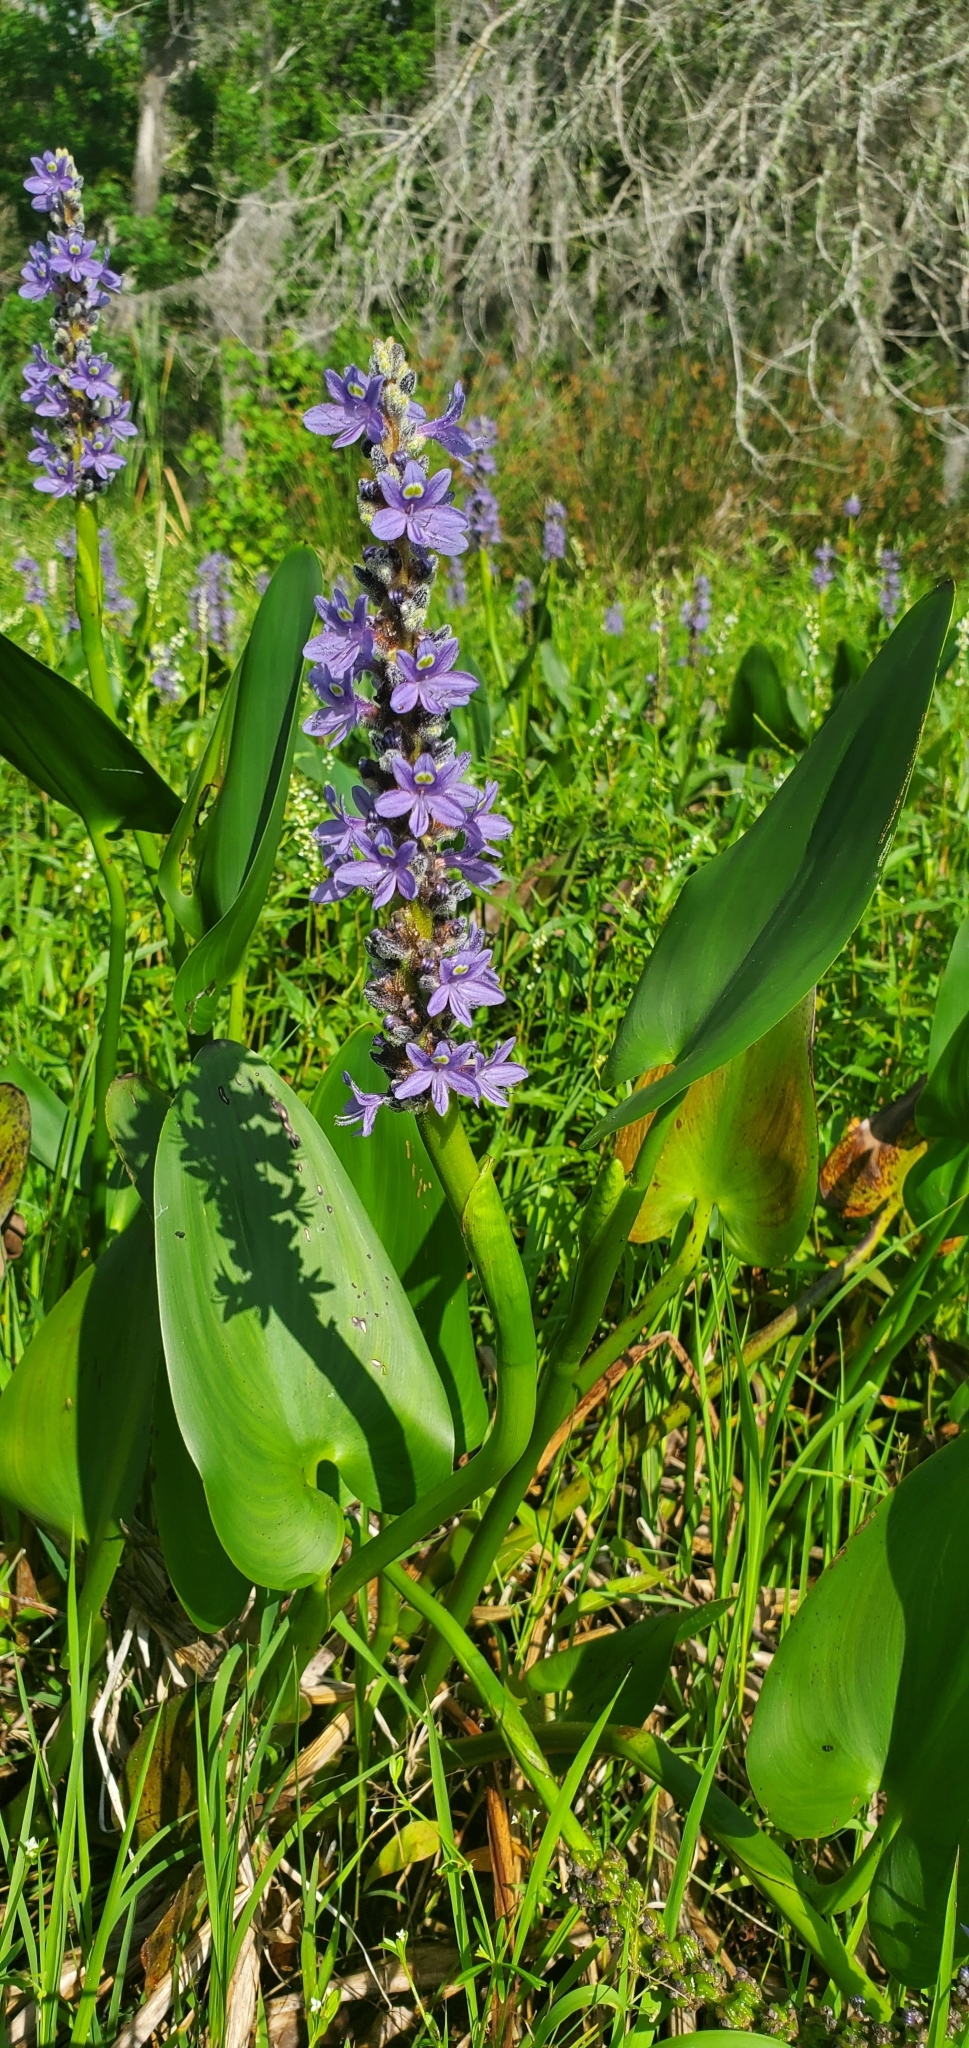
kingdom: Plantae
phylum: Tracheophyta
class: Liliopsida
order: Commelinales
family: Pontederiaceae
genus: Pontederia
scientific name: Pontederia cordata
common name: Pickerelweed
